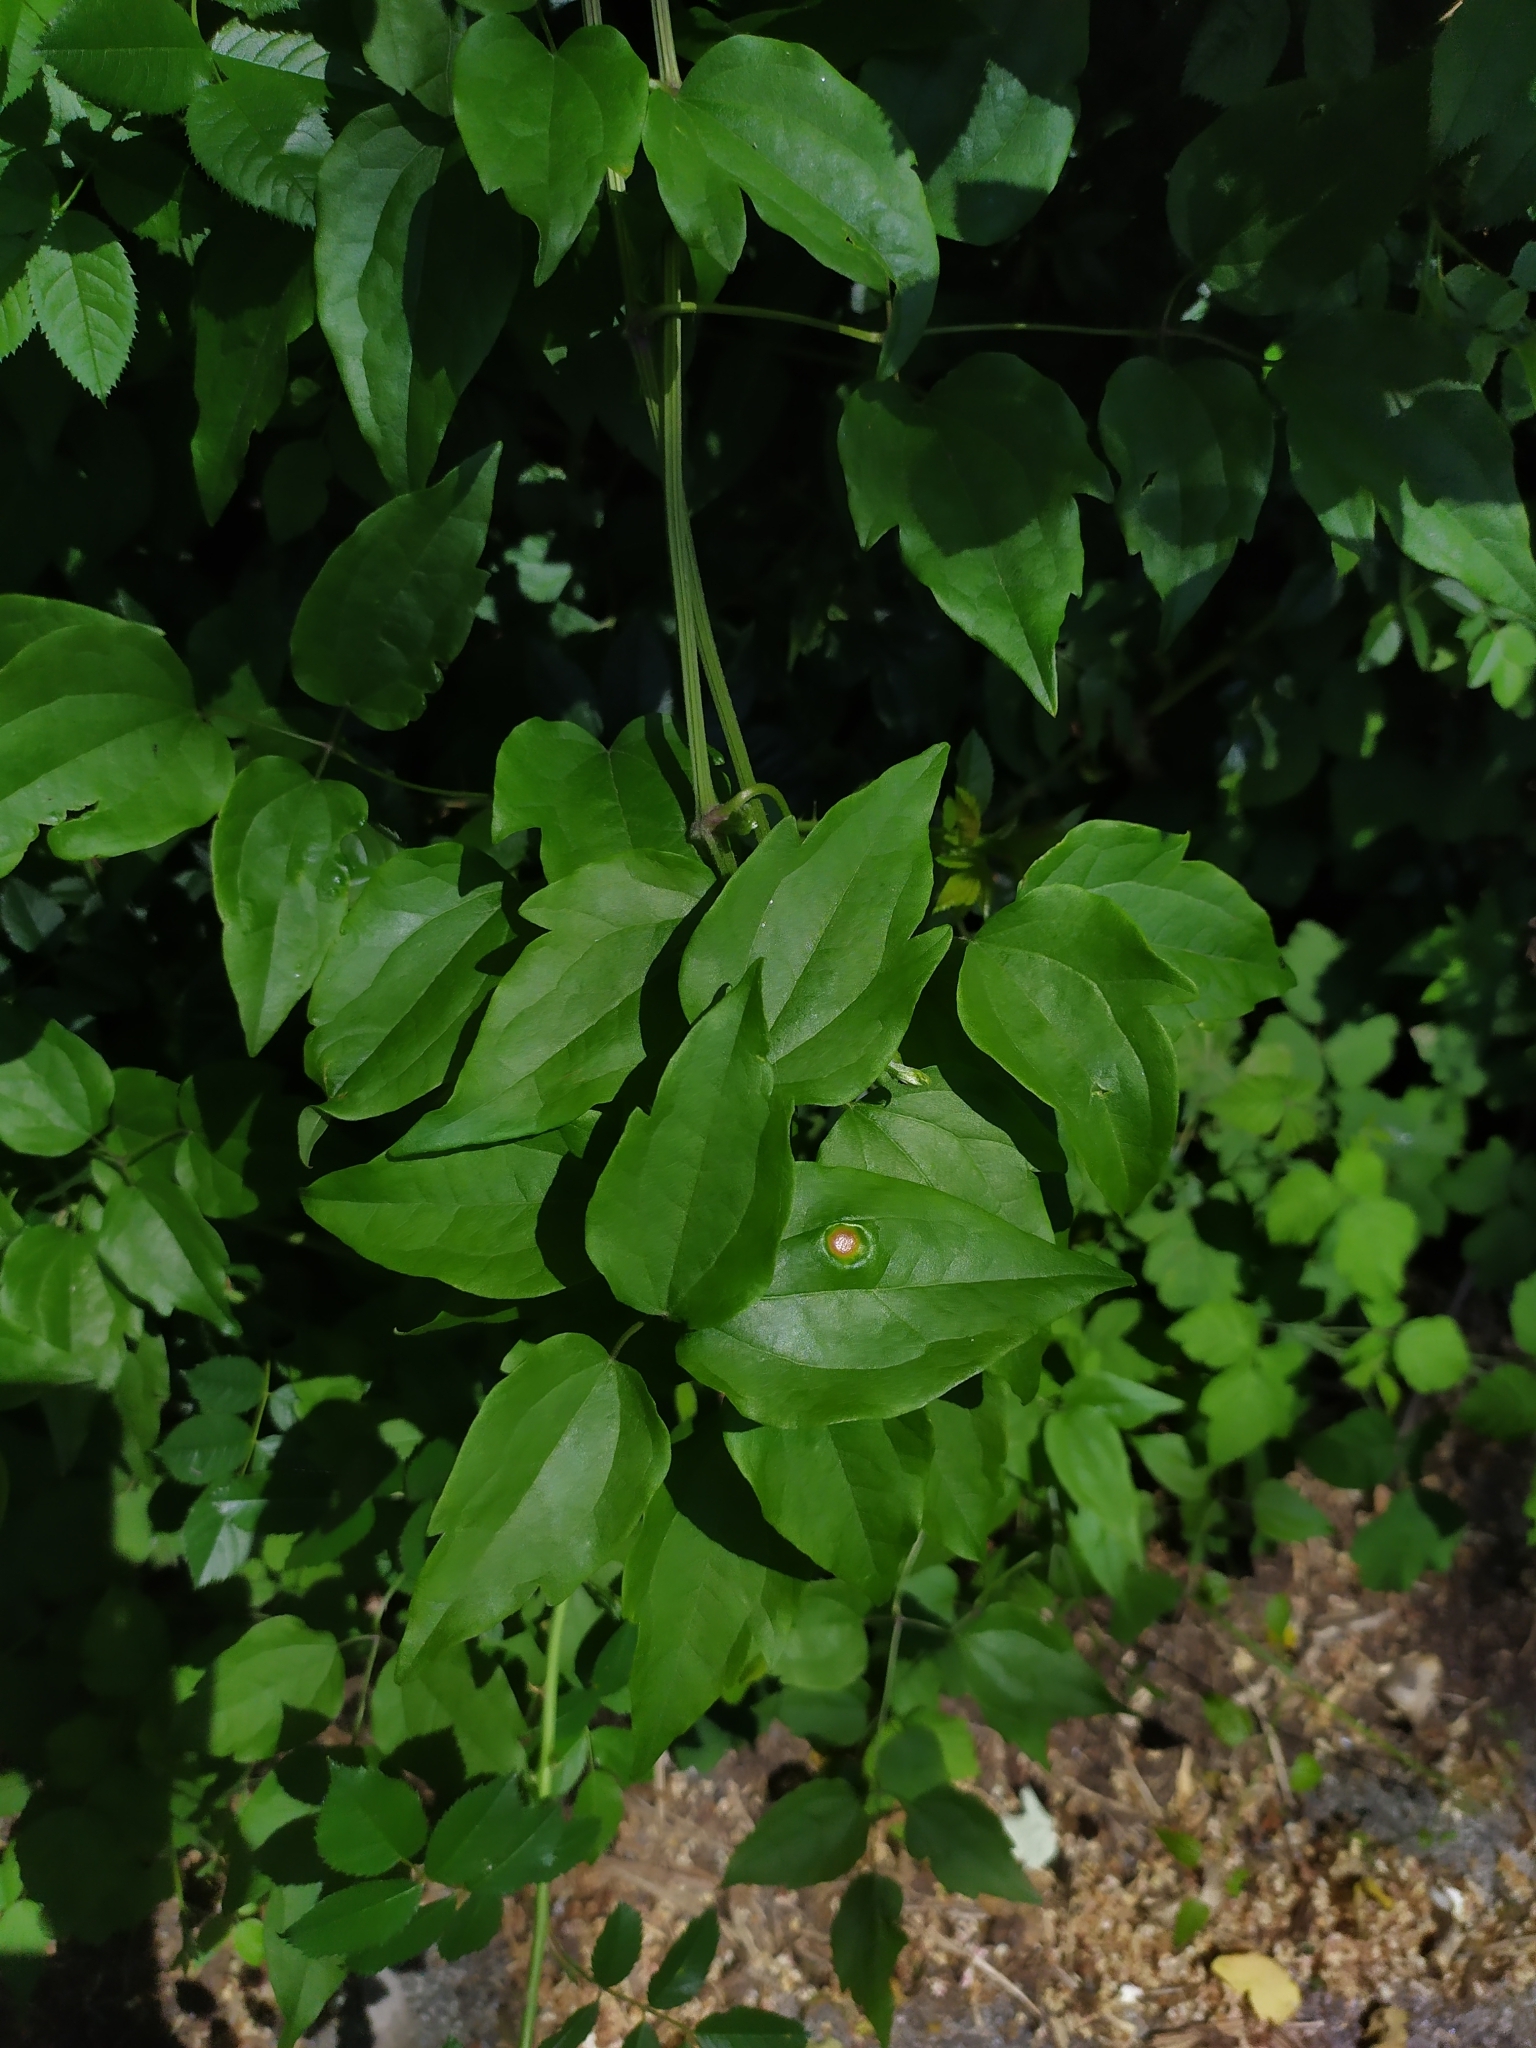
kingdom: Fungi
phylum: Basidiomycota
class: Pucciniomycetes
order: Pucciniales
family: Pucciniaceae
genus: Puccinia
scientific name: Puccinia clematidis
